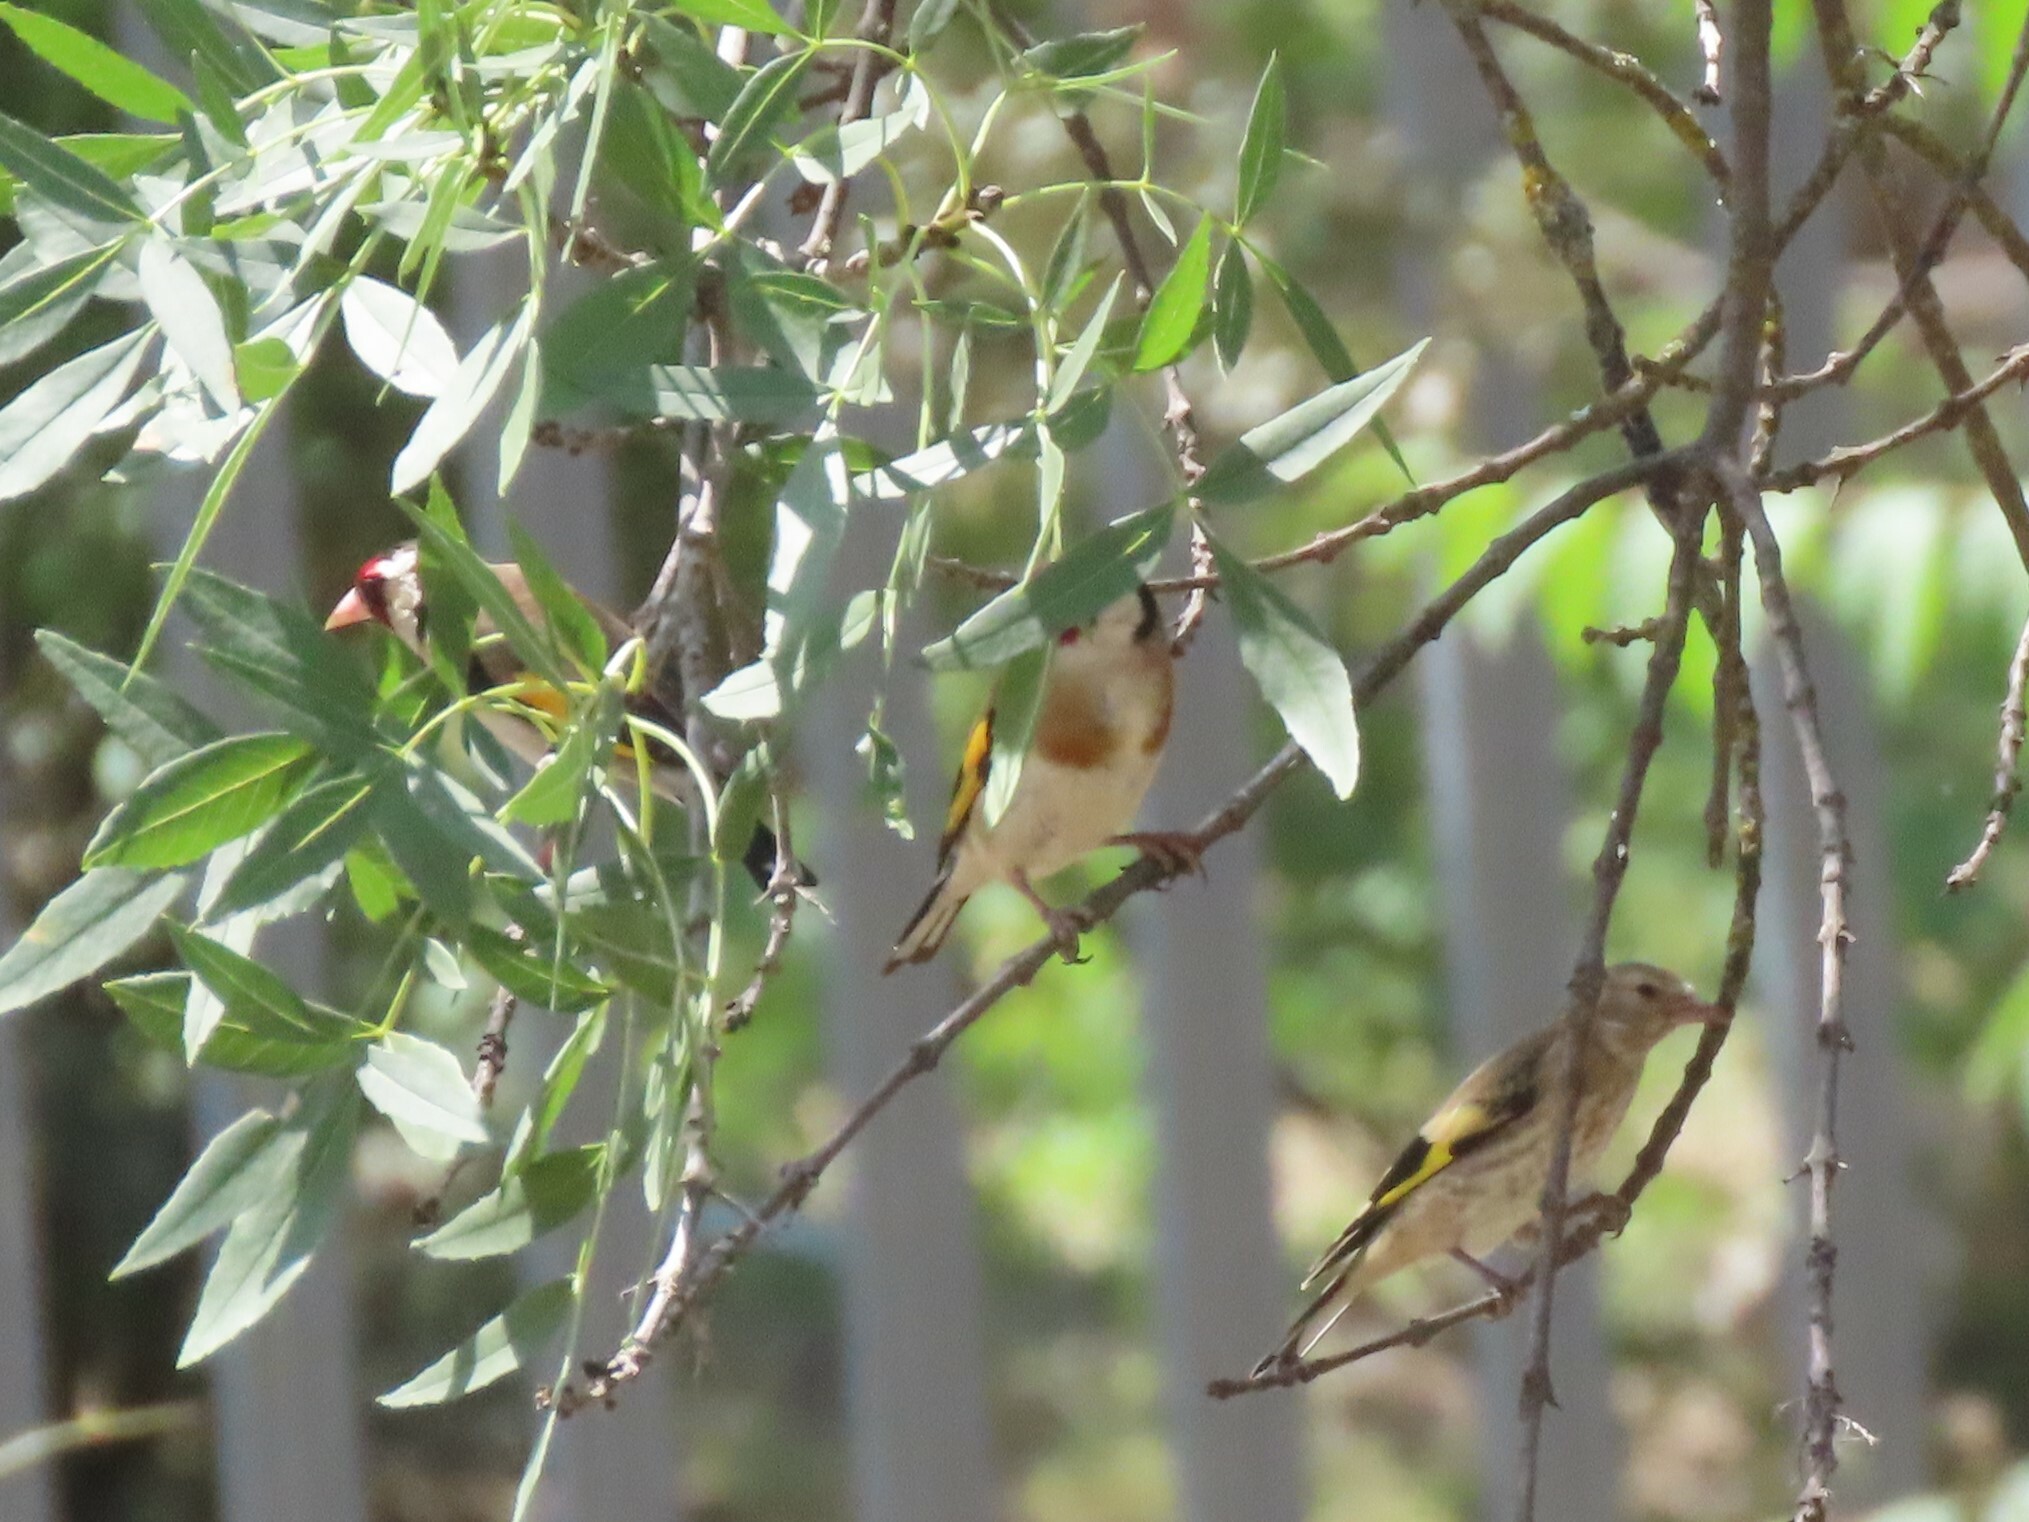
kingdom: Animalia
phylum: Chordata
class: Aves
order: Passeriformes
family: Fringillidae
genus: Carduelis
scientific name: Carduelis carduelis
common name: European goldfinch
